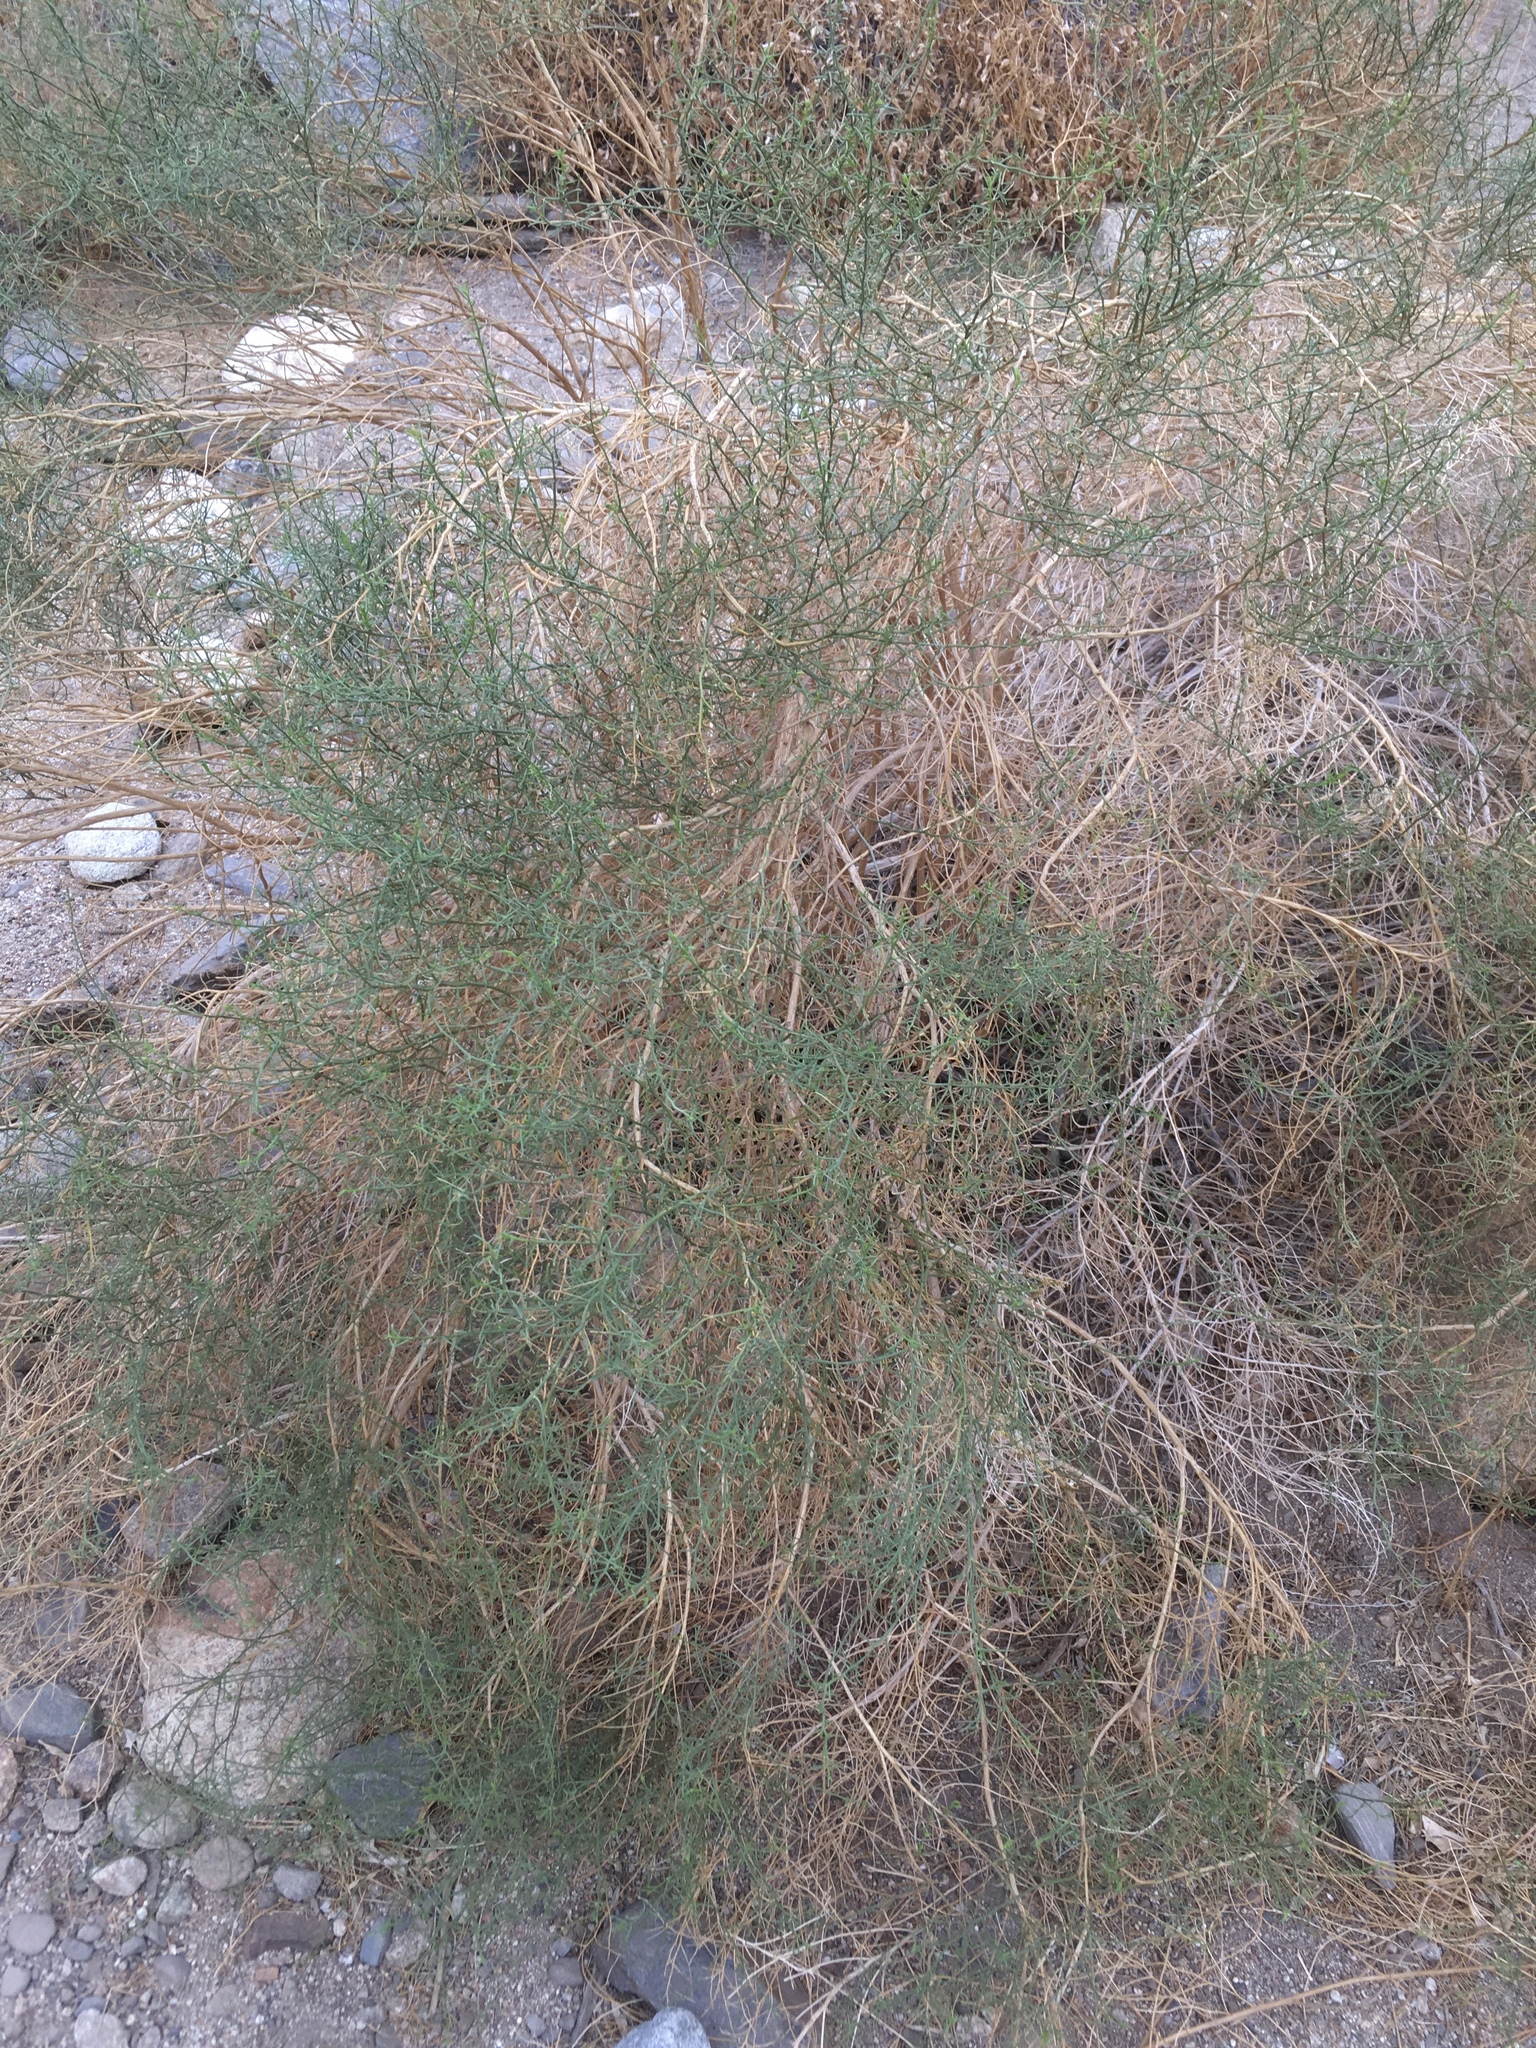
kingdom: Plantae
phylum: Tracheophyta
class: Magnoliopsida
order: Asterales
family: Asteraceae
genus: Ambrosia
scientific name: Ambrosia salsola
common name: Burrobrush
